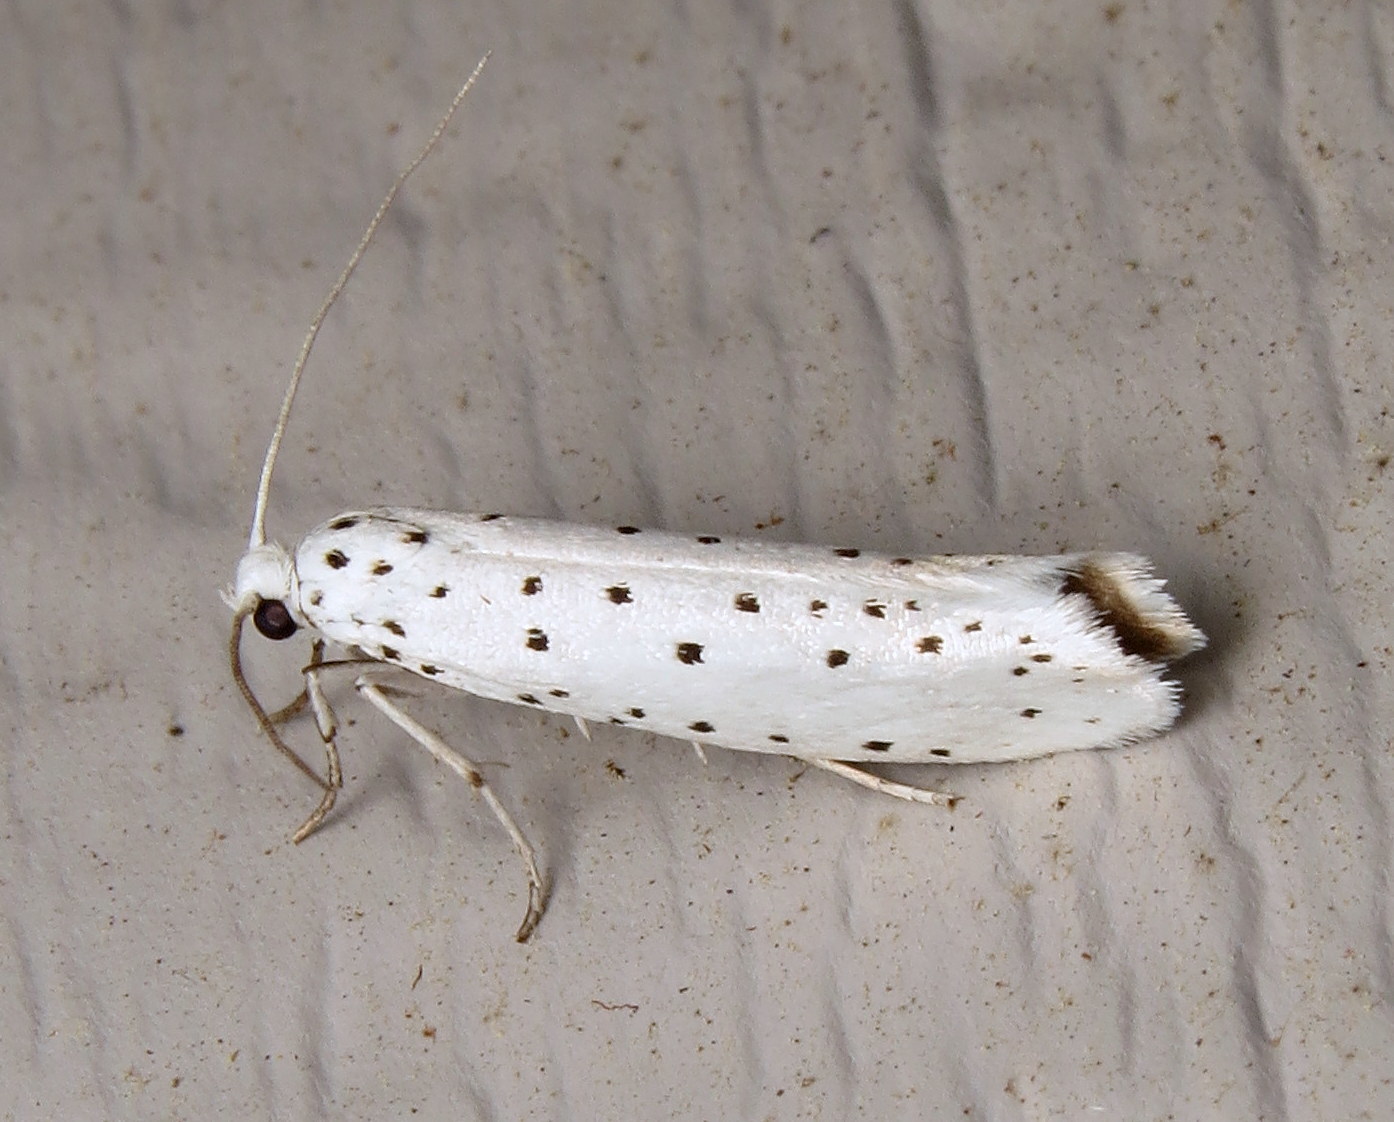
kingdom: Animalia
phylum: Arthropoda
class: Insecta
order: Lepidoptera
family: Yponomeutidae
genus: Yponomeuta
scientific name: Yponomeuta cagnagellus
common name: Spindle ermine
